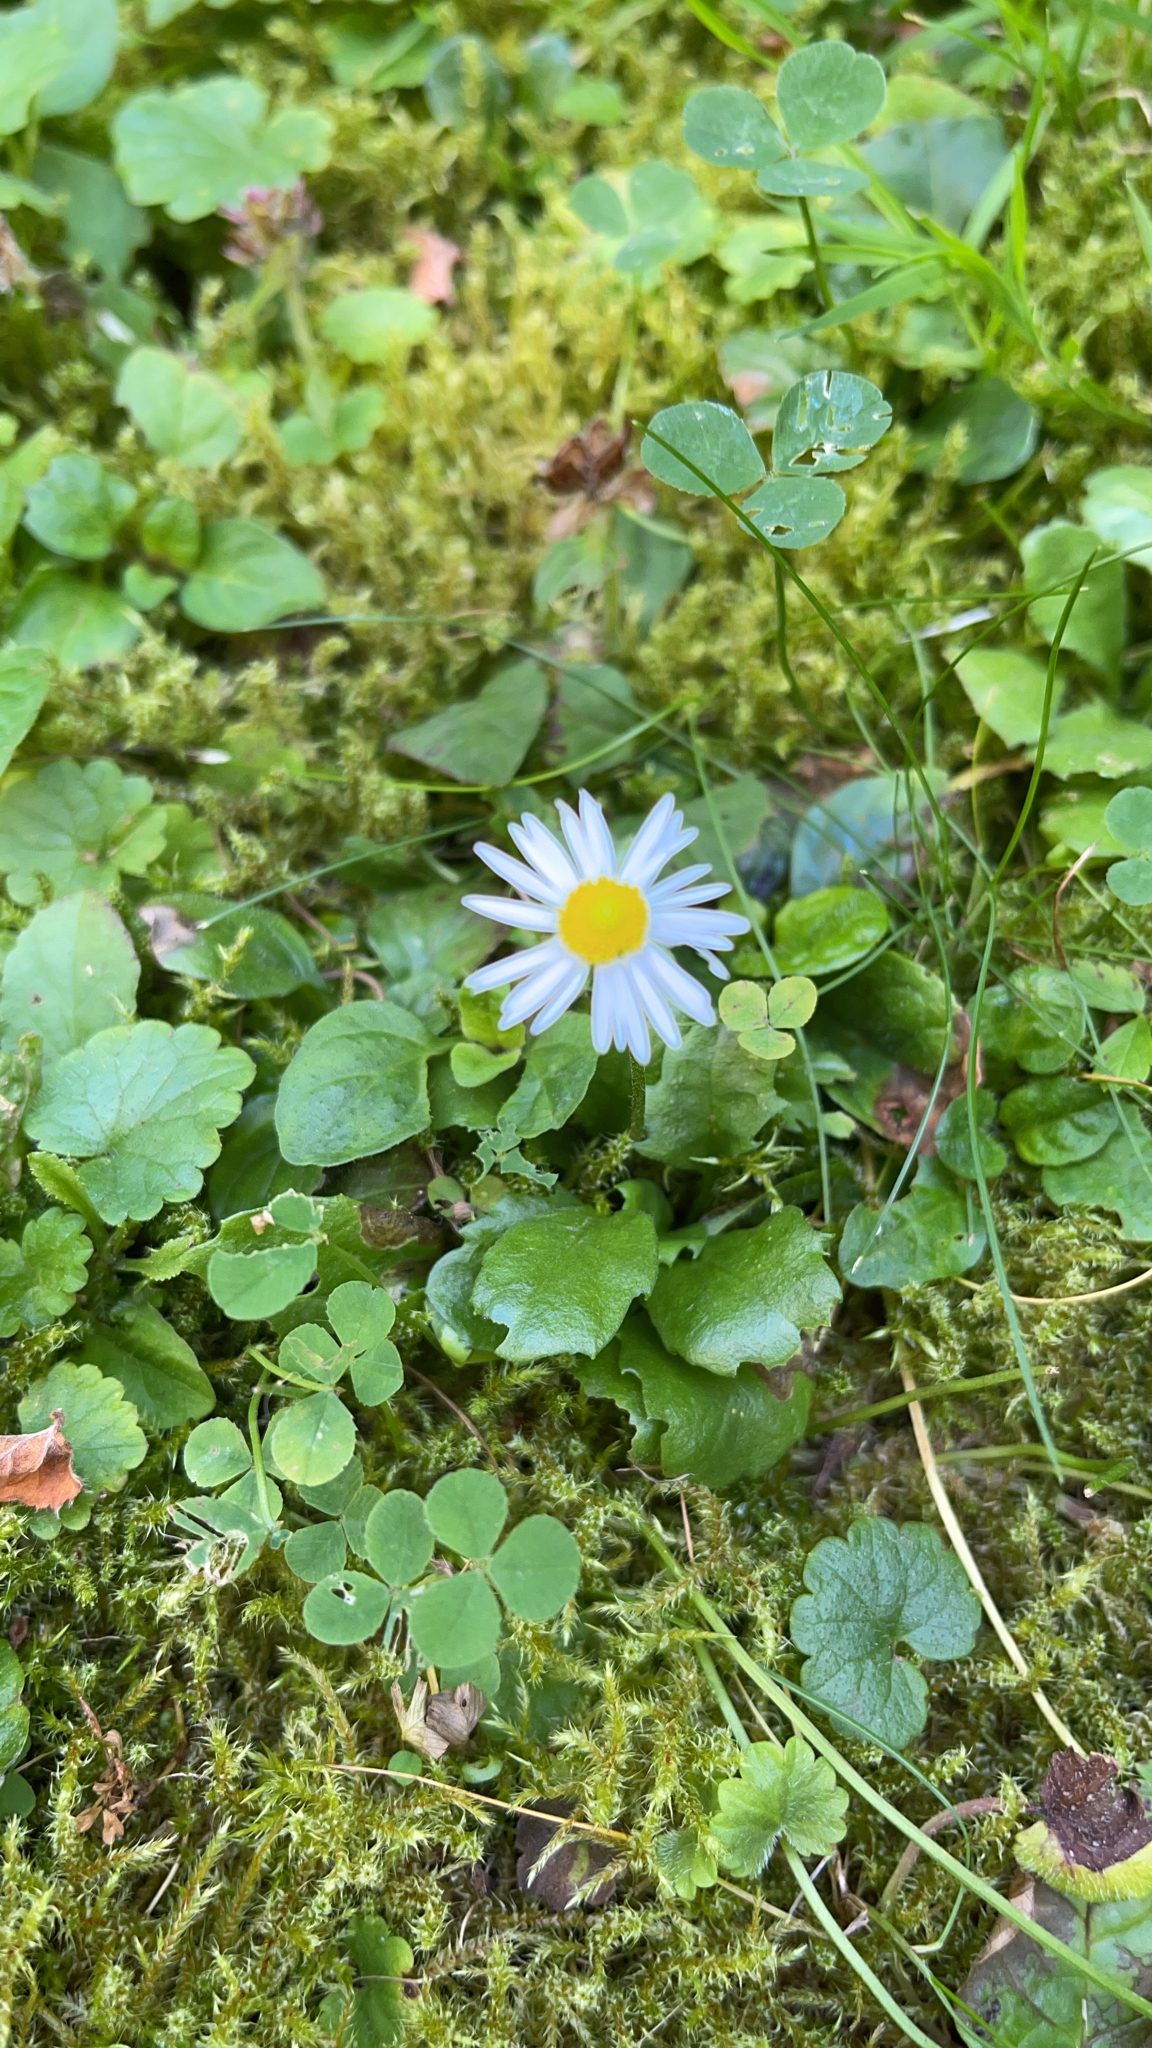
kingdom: Plantae
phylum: Tracheophyta
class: Magnoliopsida
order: Asterales
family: Asteraceae
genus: Bellis
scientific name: Bellis perennis
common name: Lawndaisy
